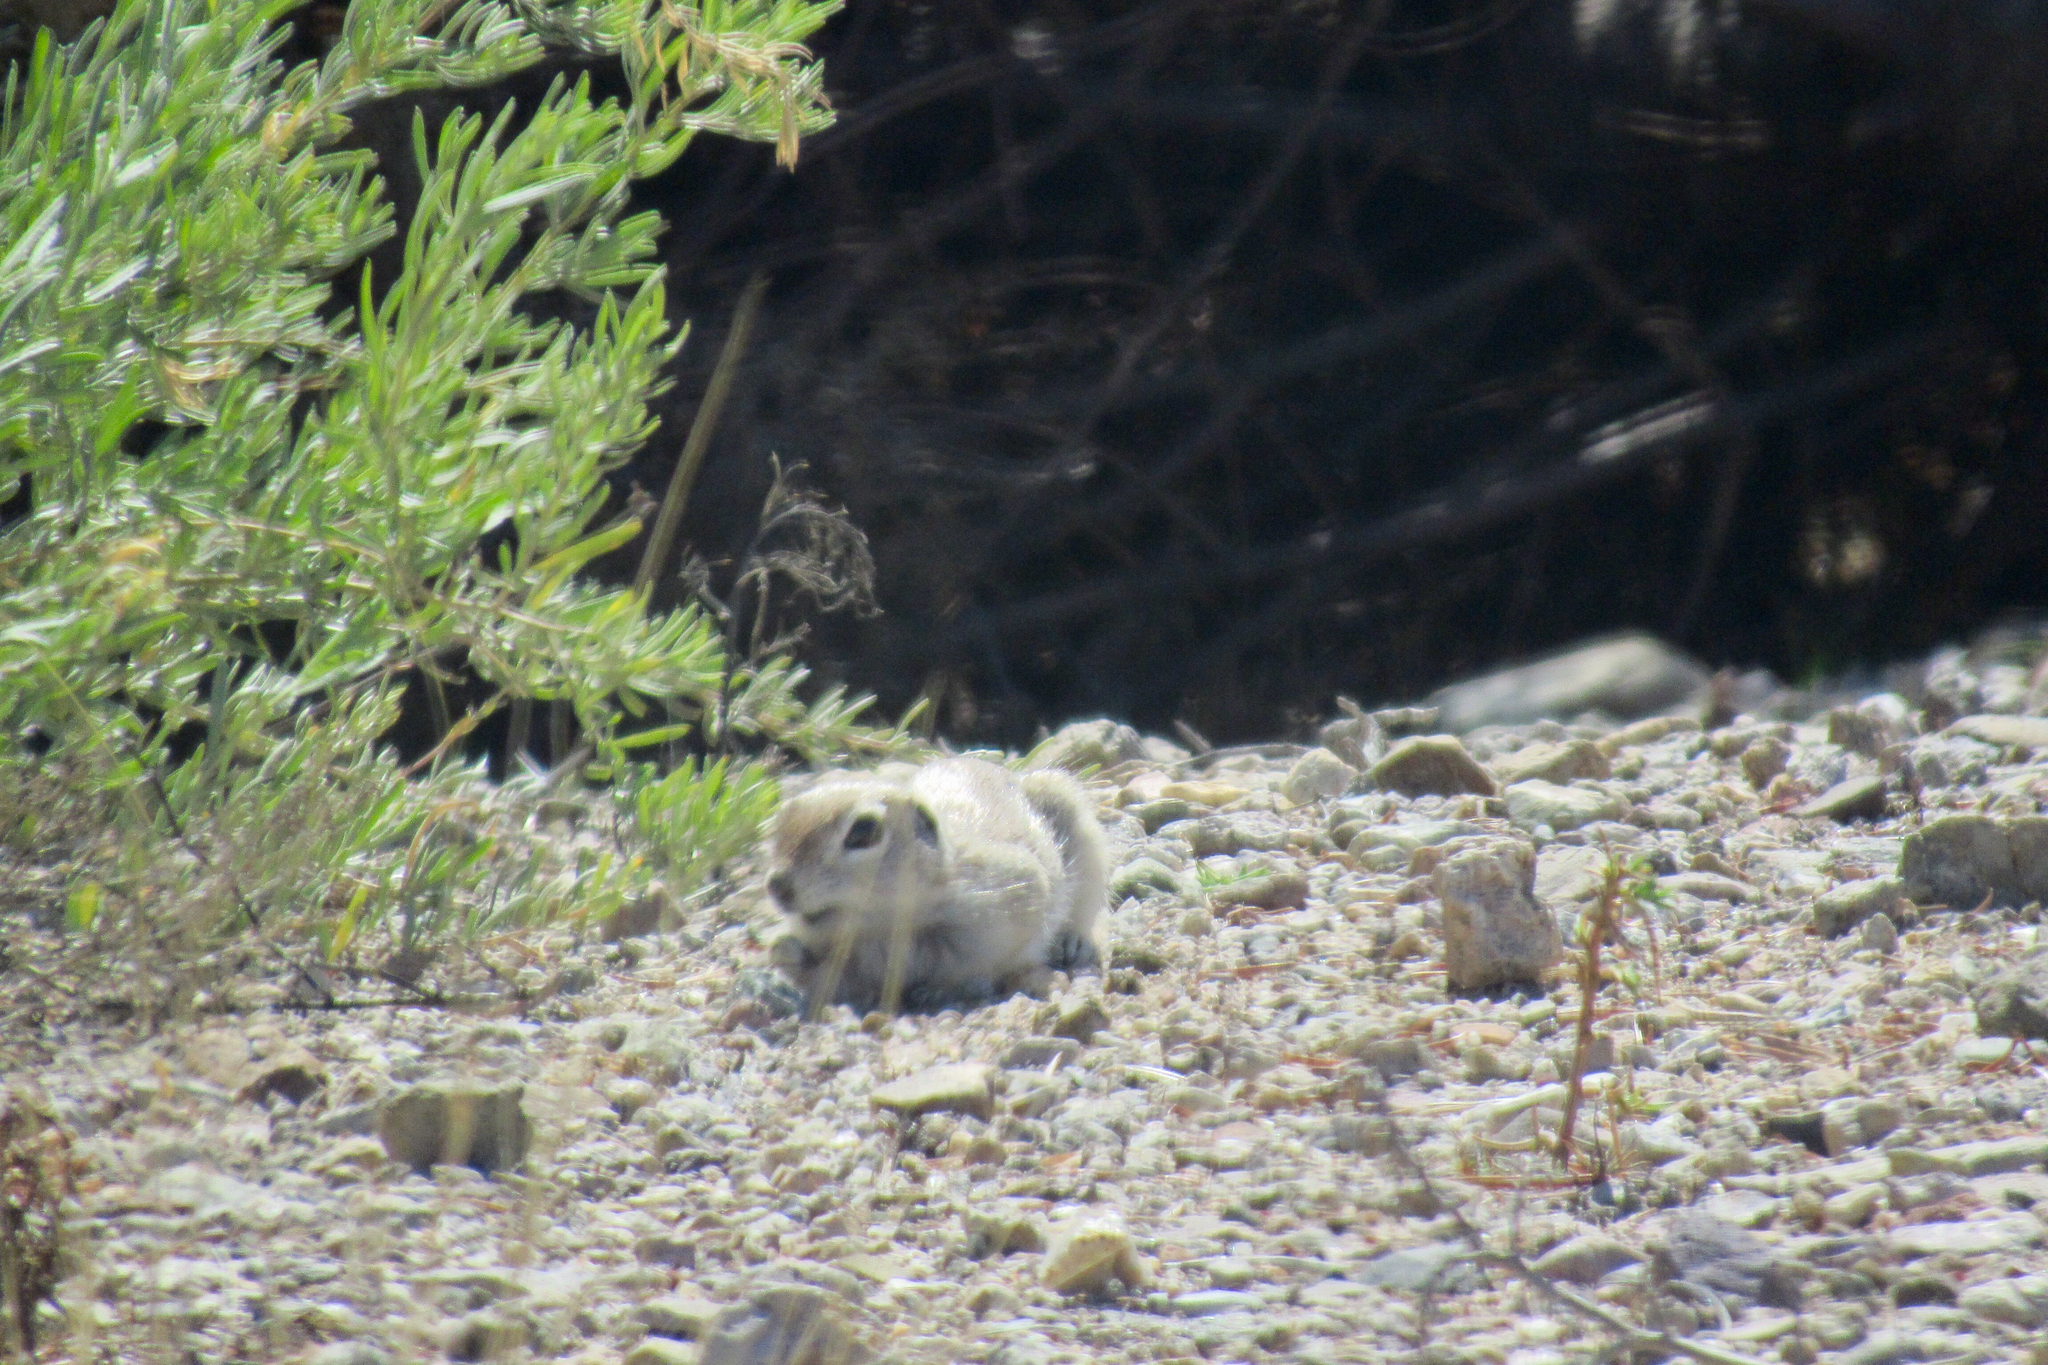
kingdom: Animalia
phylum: Chordata
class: Mammalia
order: Rodentia
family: Sciuridae
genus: Xerospermophilus
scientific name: Xerospermophilus tereticaudus
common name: Round-tailed ground squirrel
